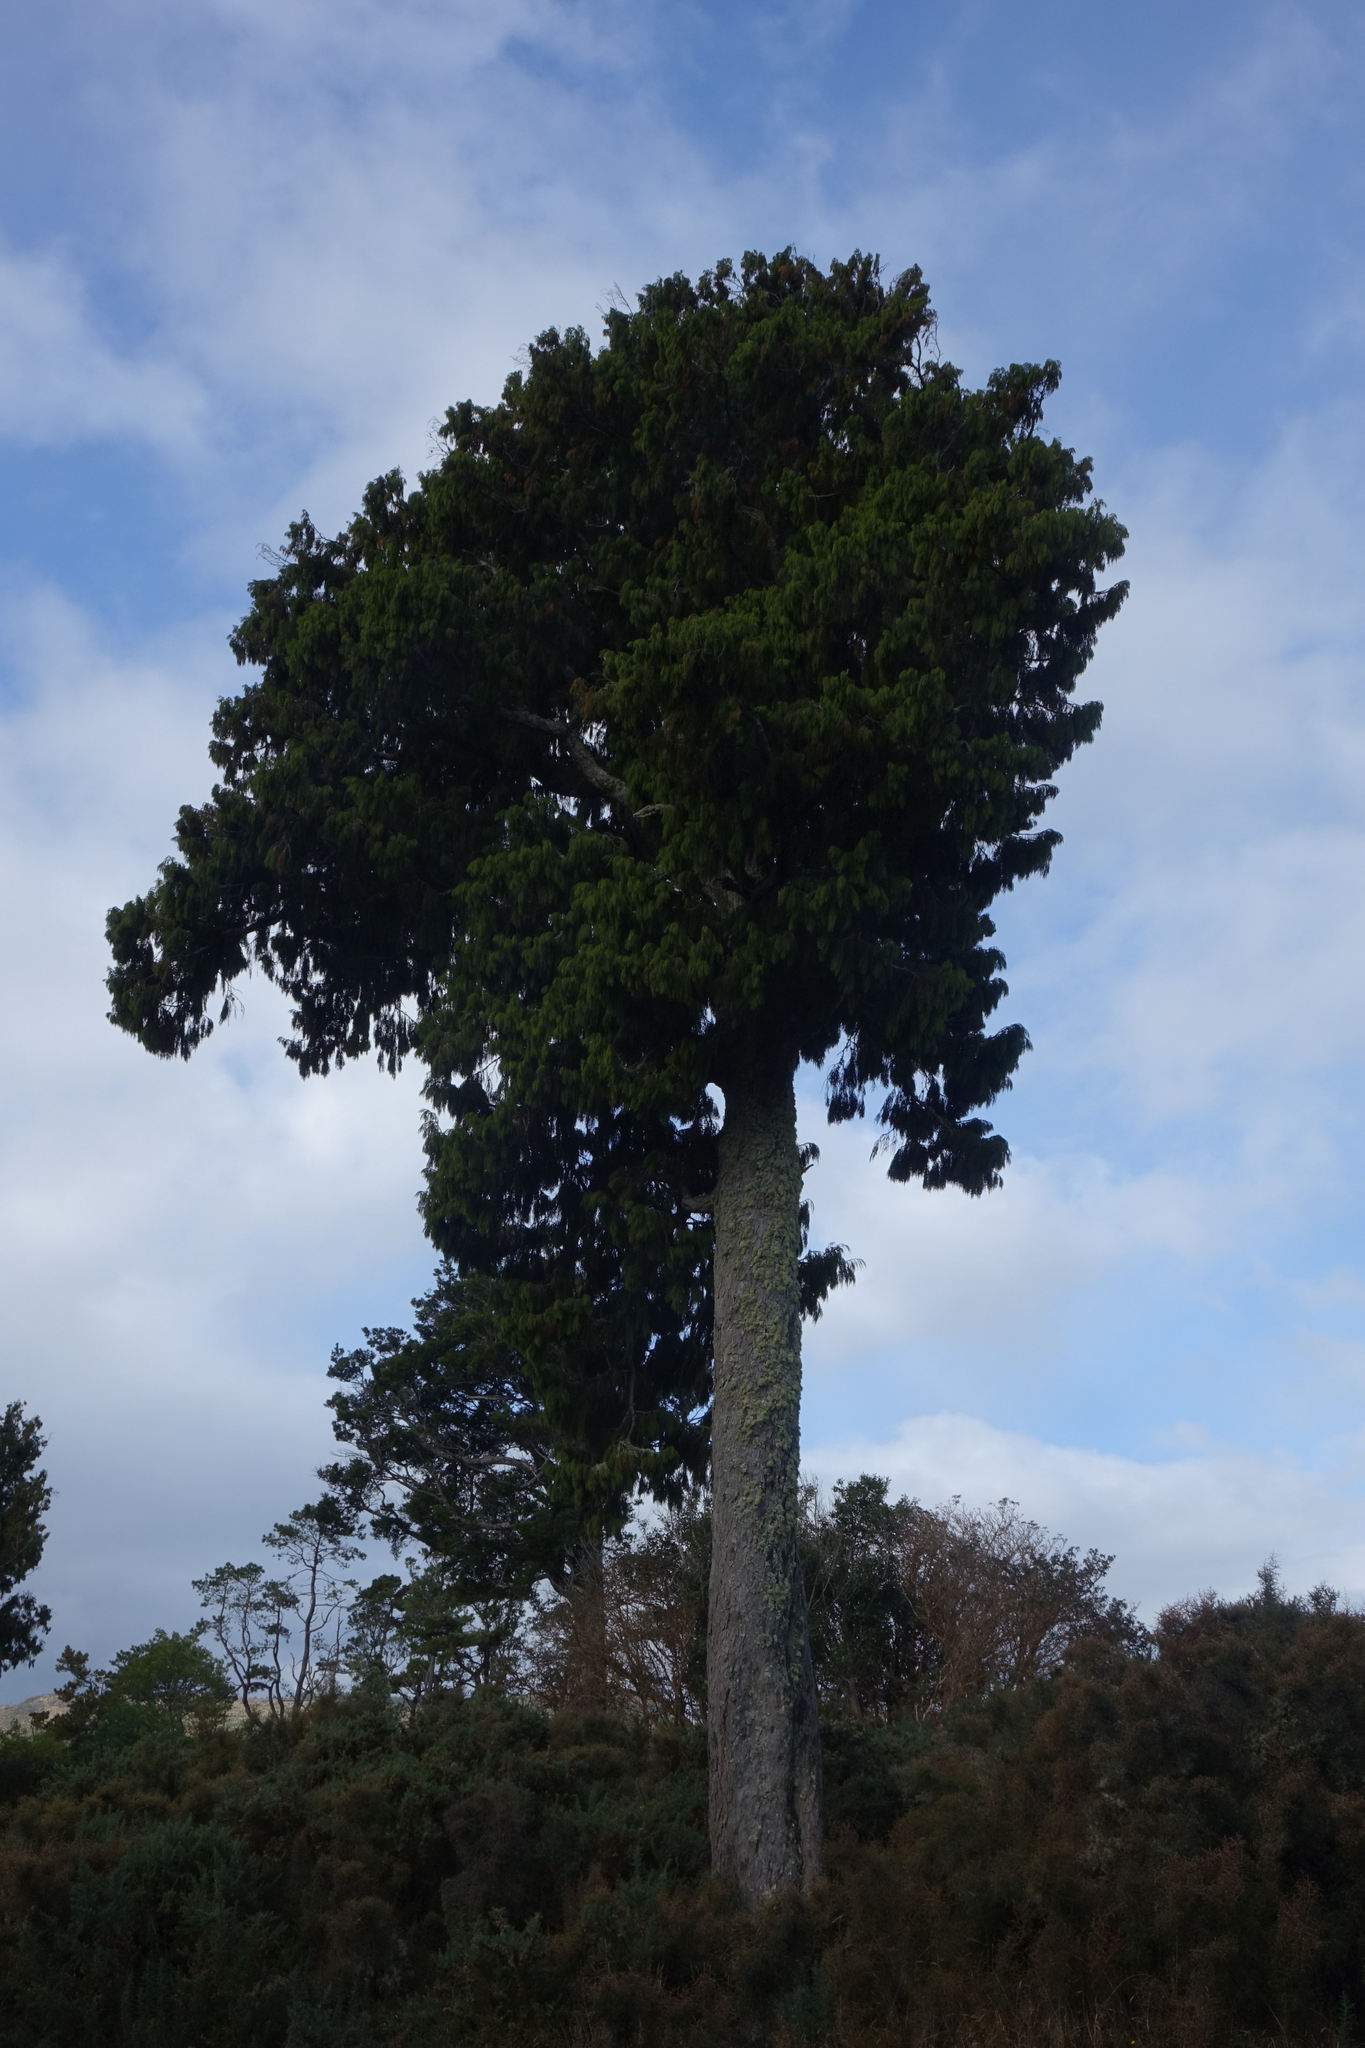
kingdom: Plantae
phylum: Tracheophyta
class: Pinopsida
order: Pinales
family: Podocarpaceae
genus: Dacrydium
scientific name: Dacrydium cupressinum
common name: Red pine
